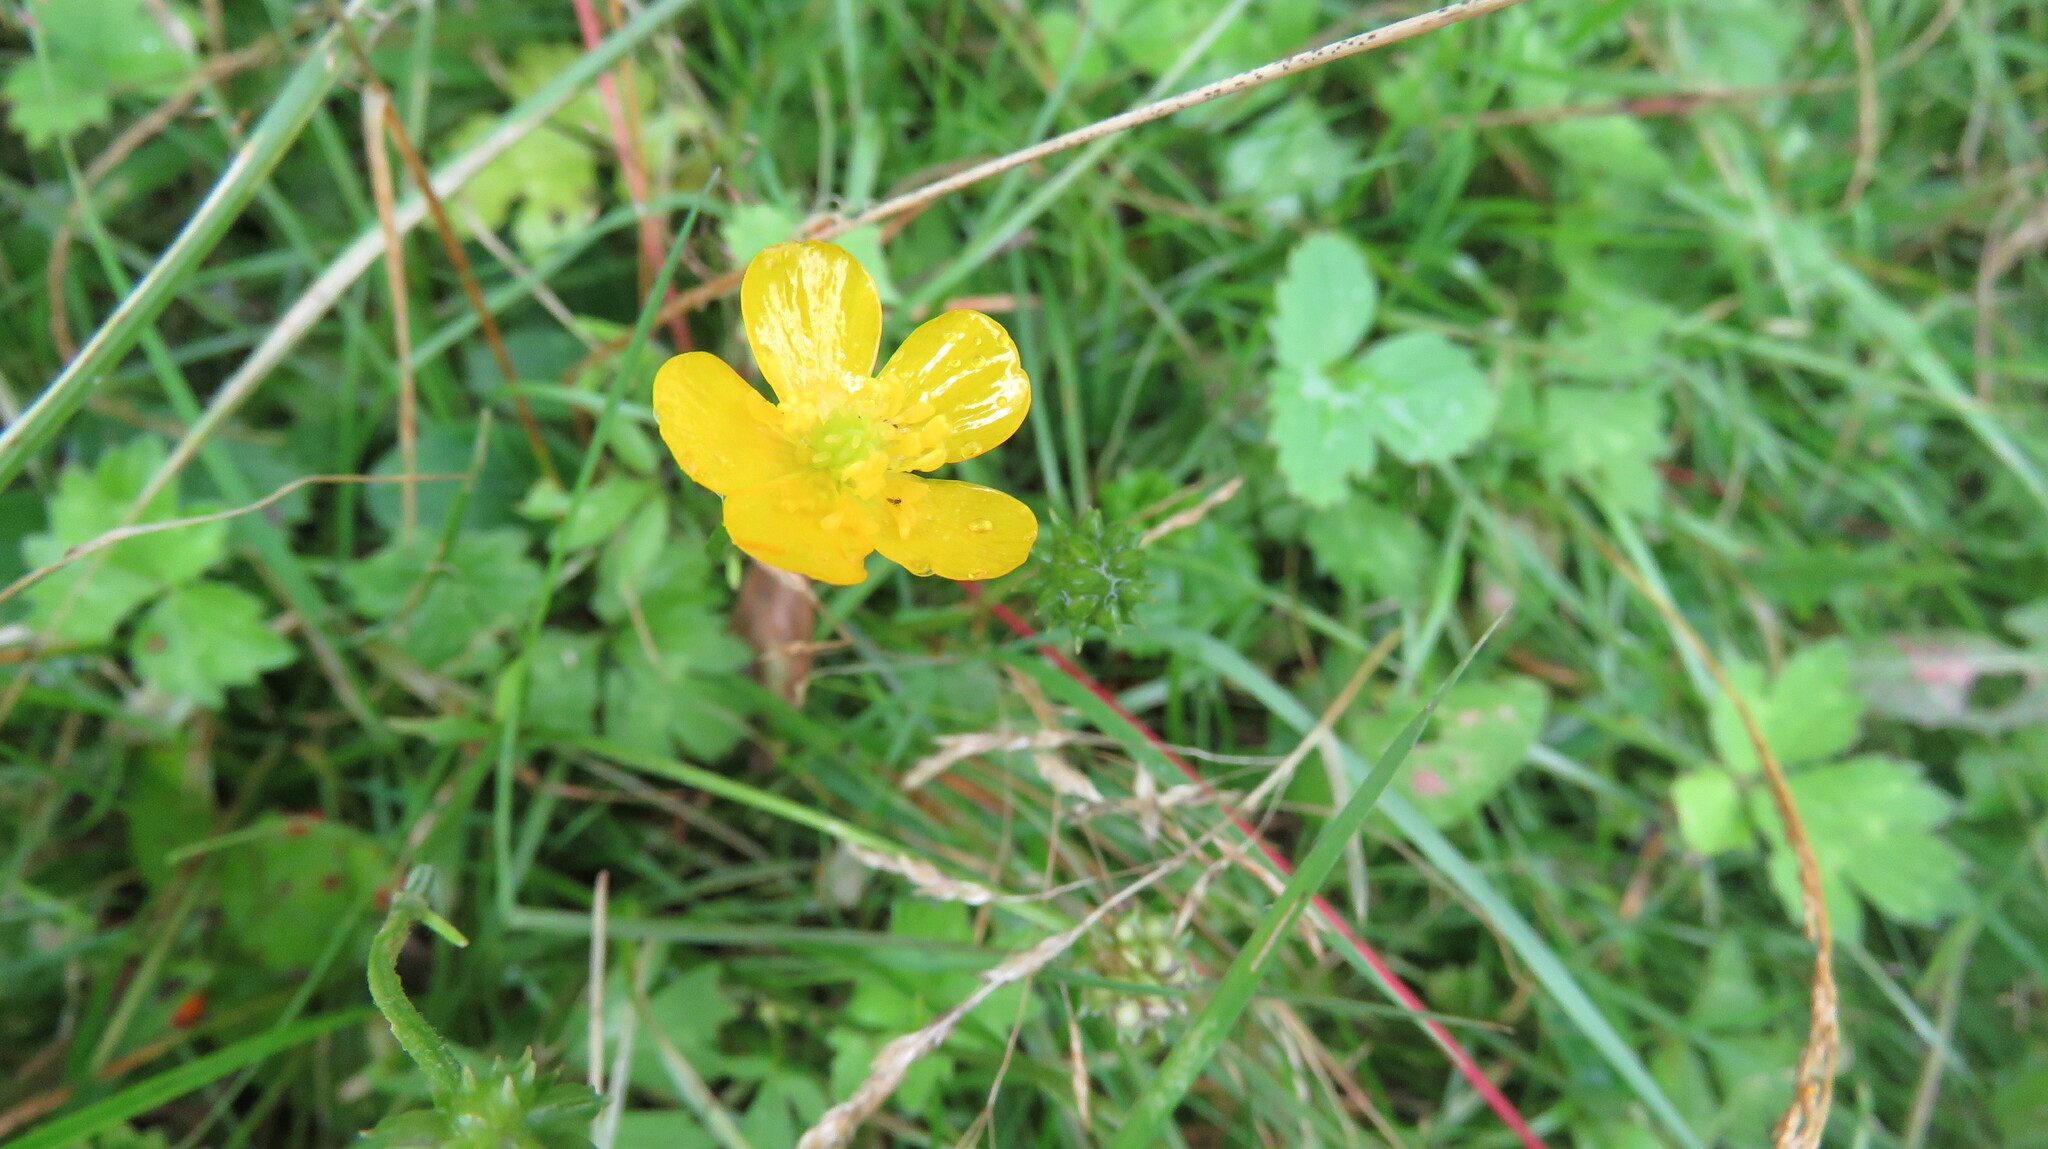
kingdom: Plantae
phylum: Tracheophyta
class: Magnoliopsida
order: Ranunculales
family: Ranunculaceae
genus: Ranunculus
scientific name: Ranunculus repens
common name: Creeping buttercup
